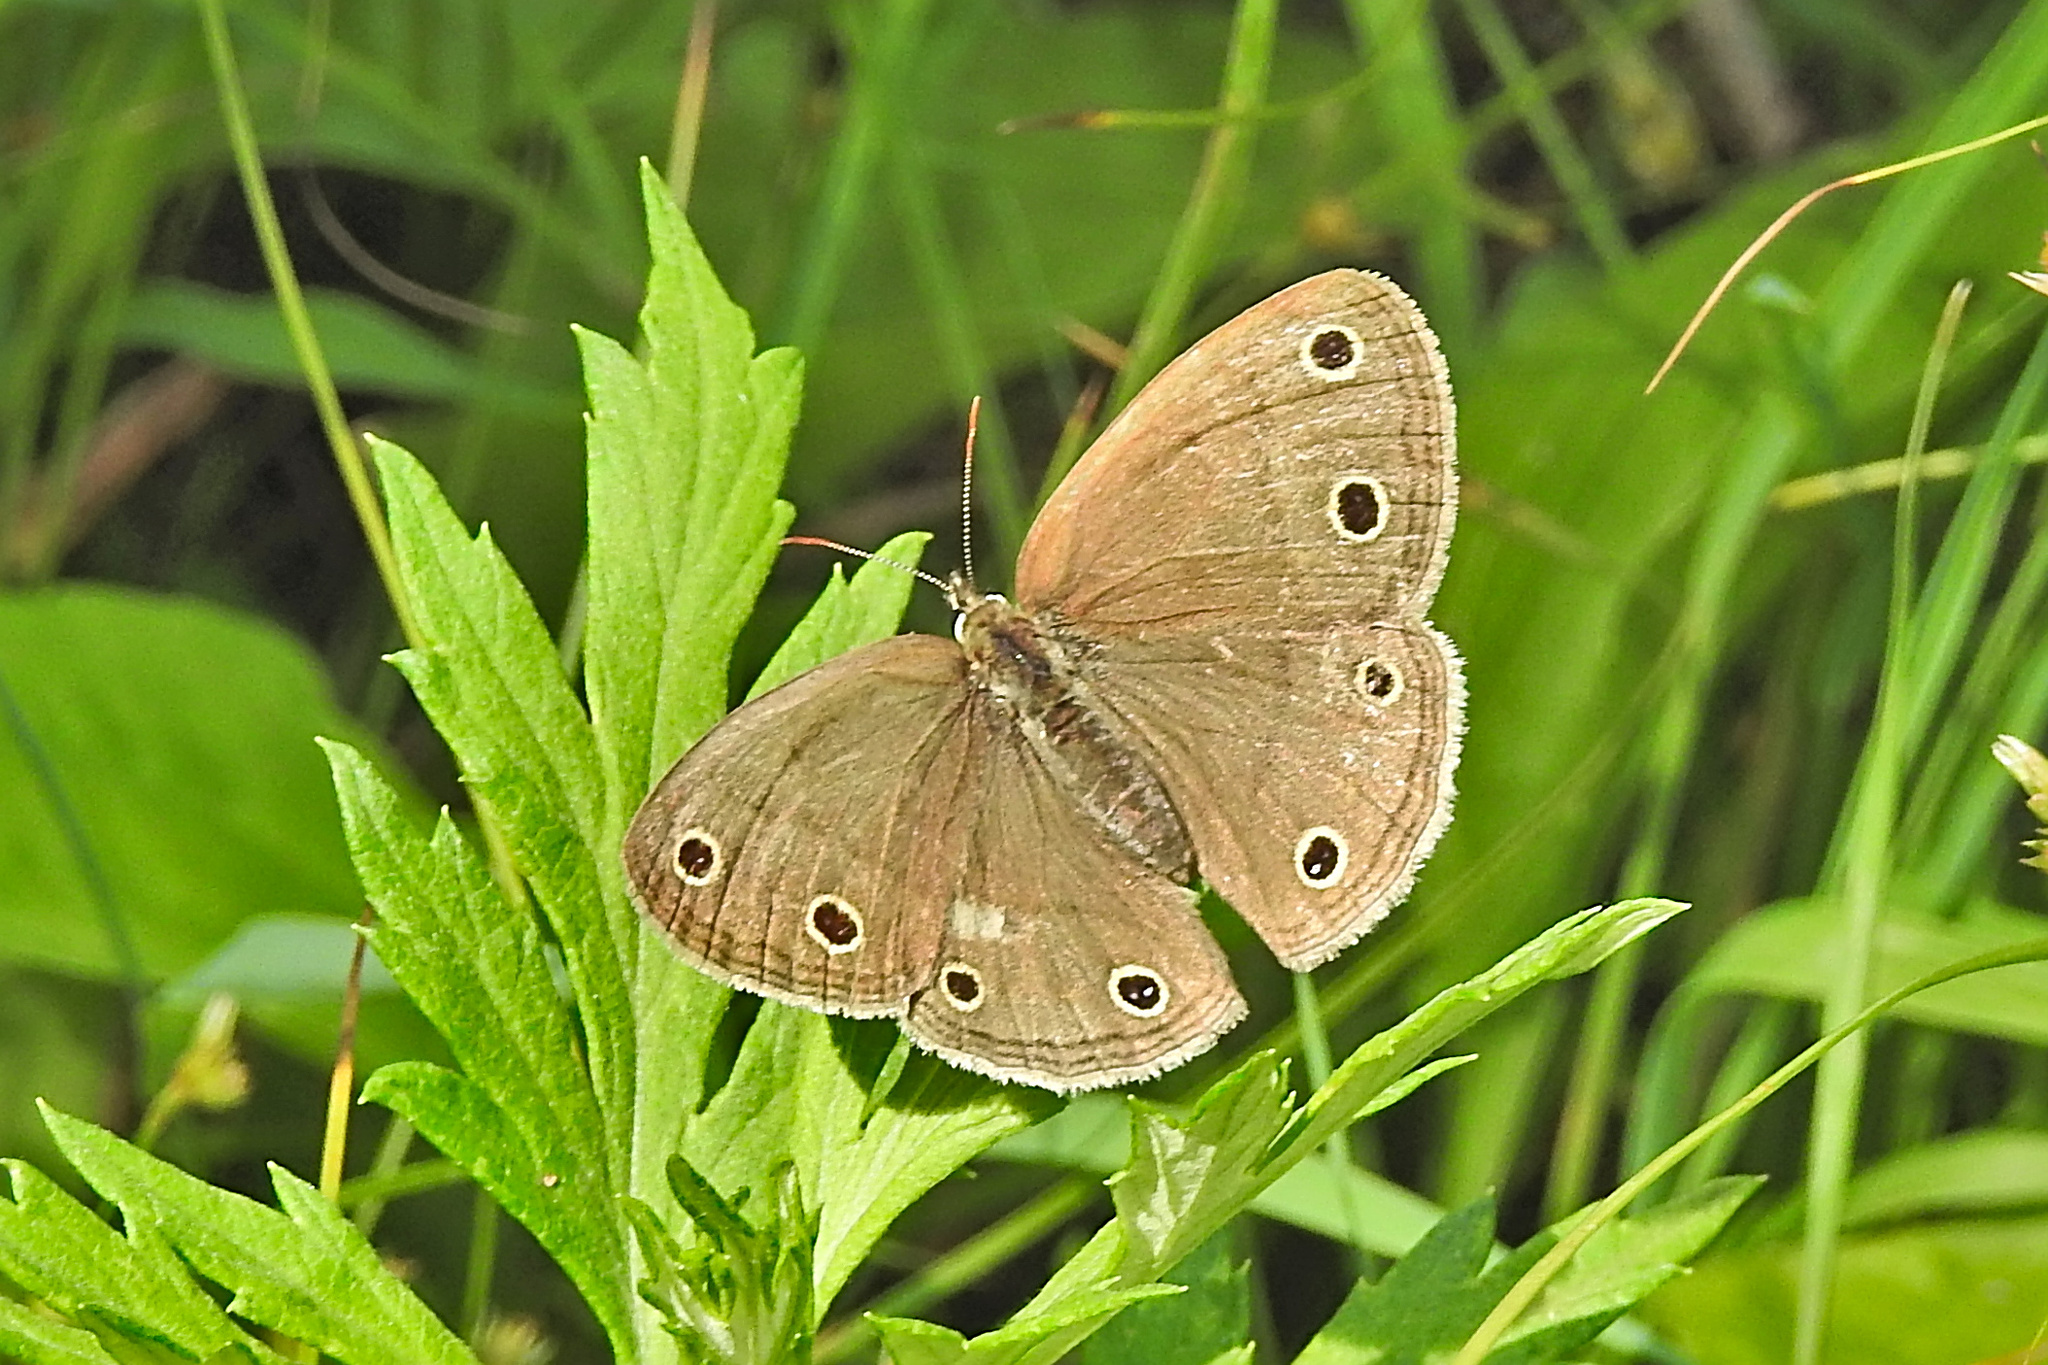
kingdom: Animalia
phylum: Arthropoda
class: Insecta
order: Lepidoptera
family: Nymphalidae
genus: Euptychia
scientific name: Euptychia cymela
